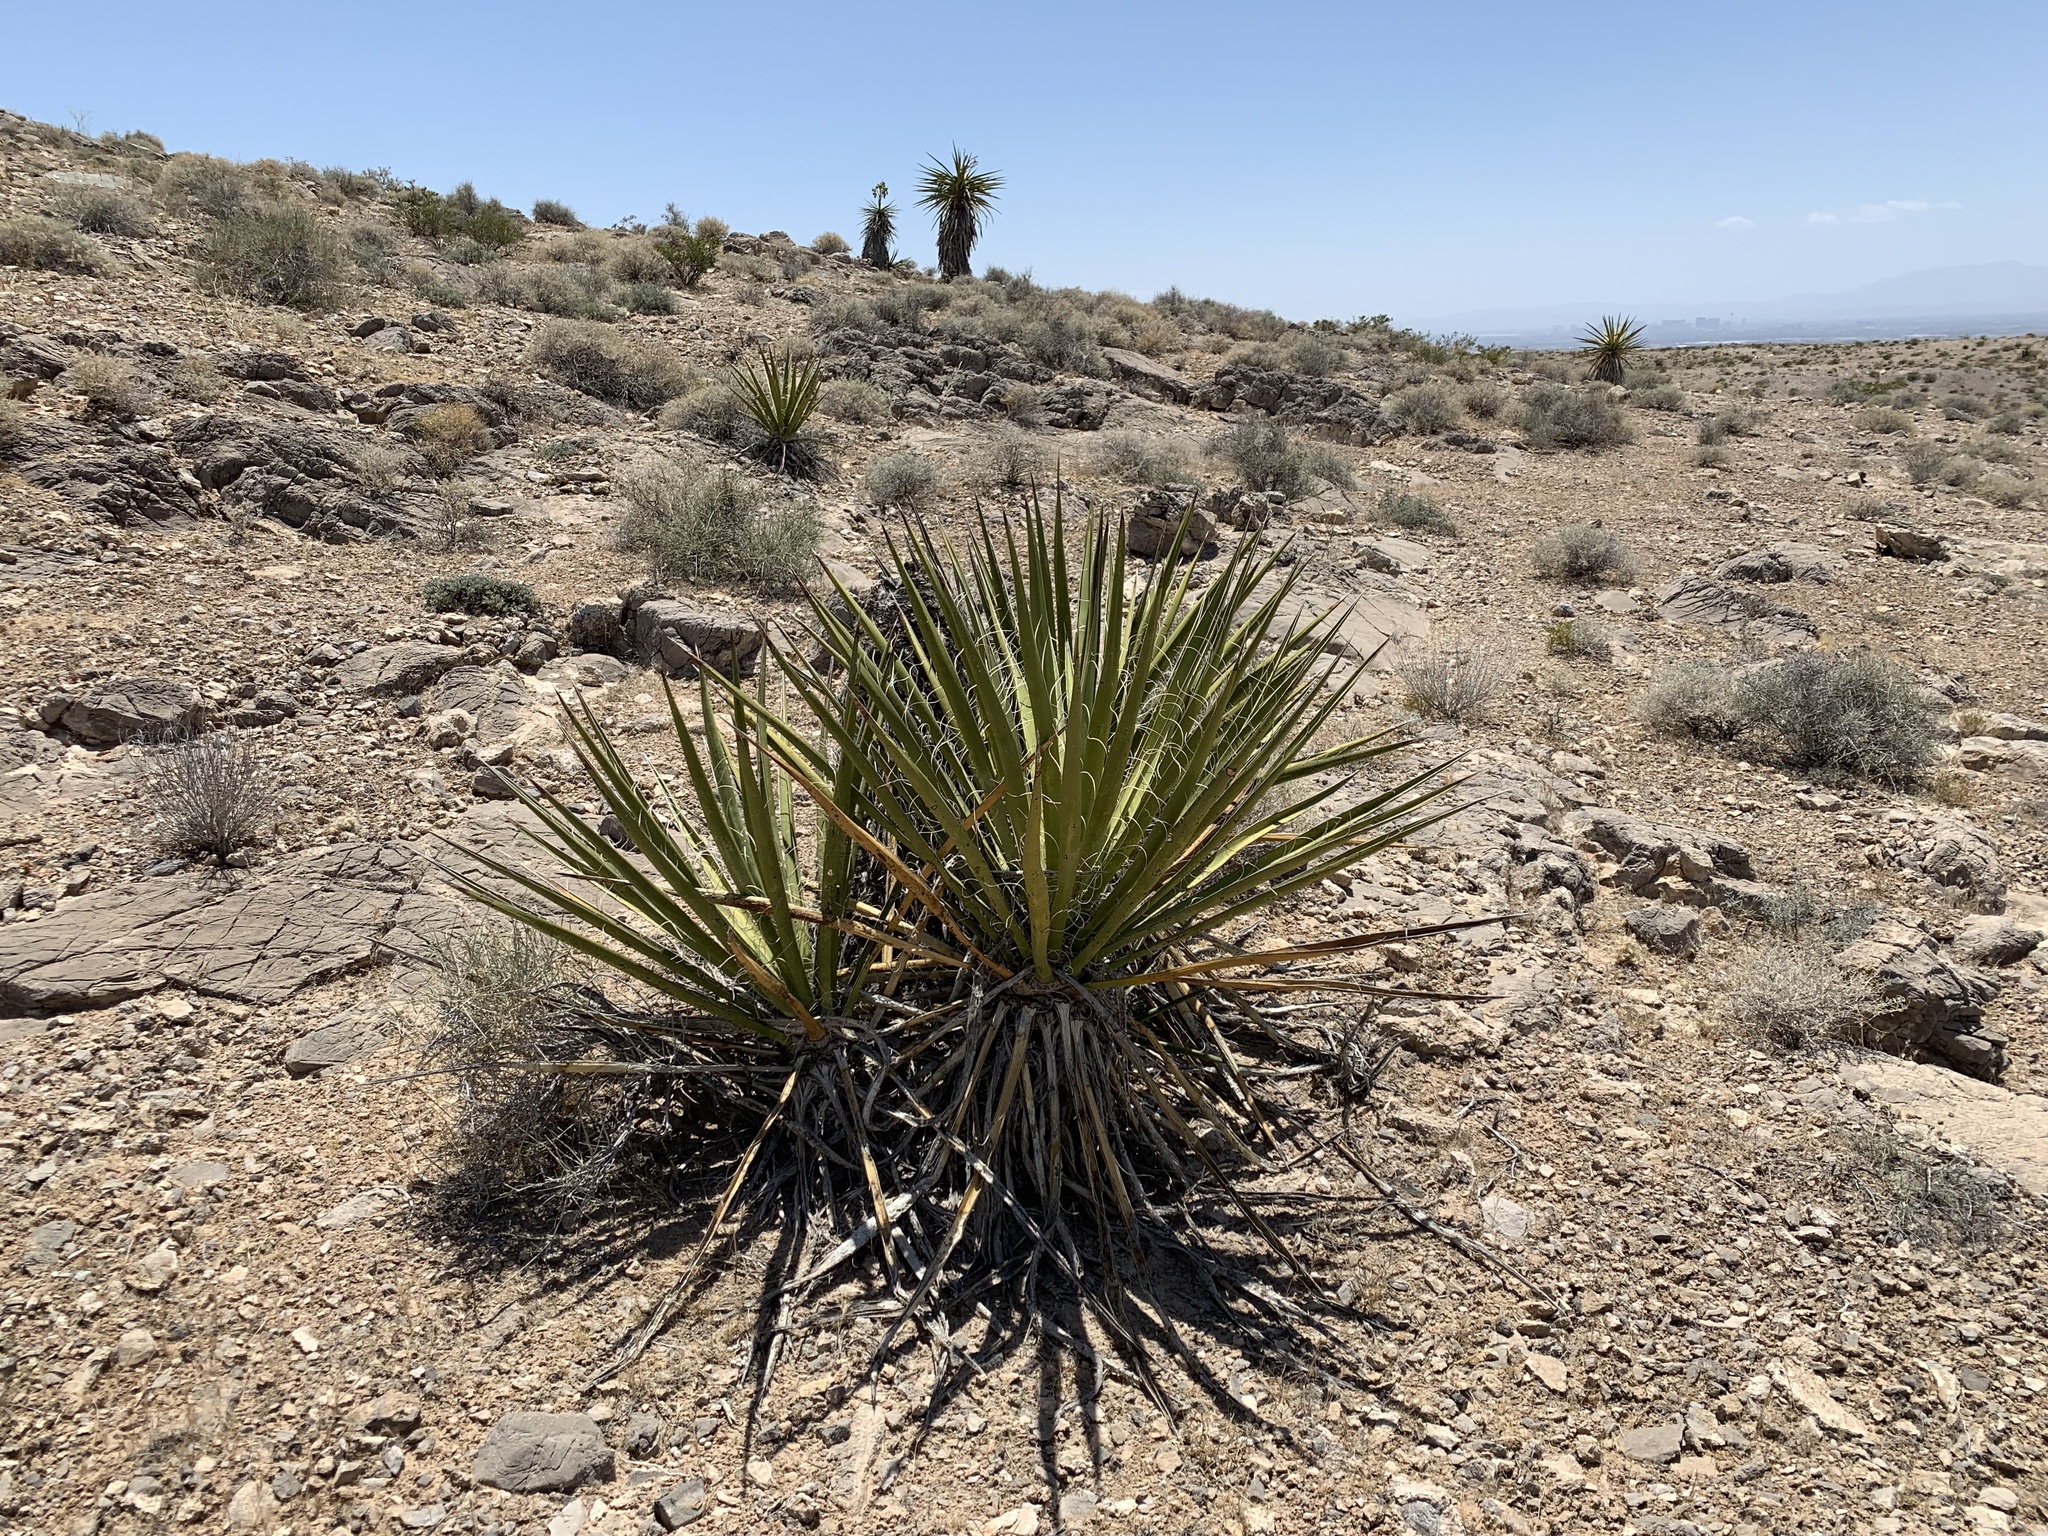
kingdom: Plantae
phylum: Tracheophyta
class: Liliopsida
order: Asparagales
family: Asparagaceae
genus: Yucca
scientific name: Yucca schidigera
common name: Mojave yucca
